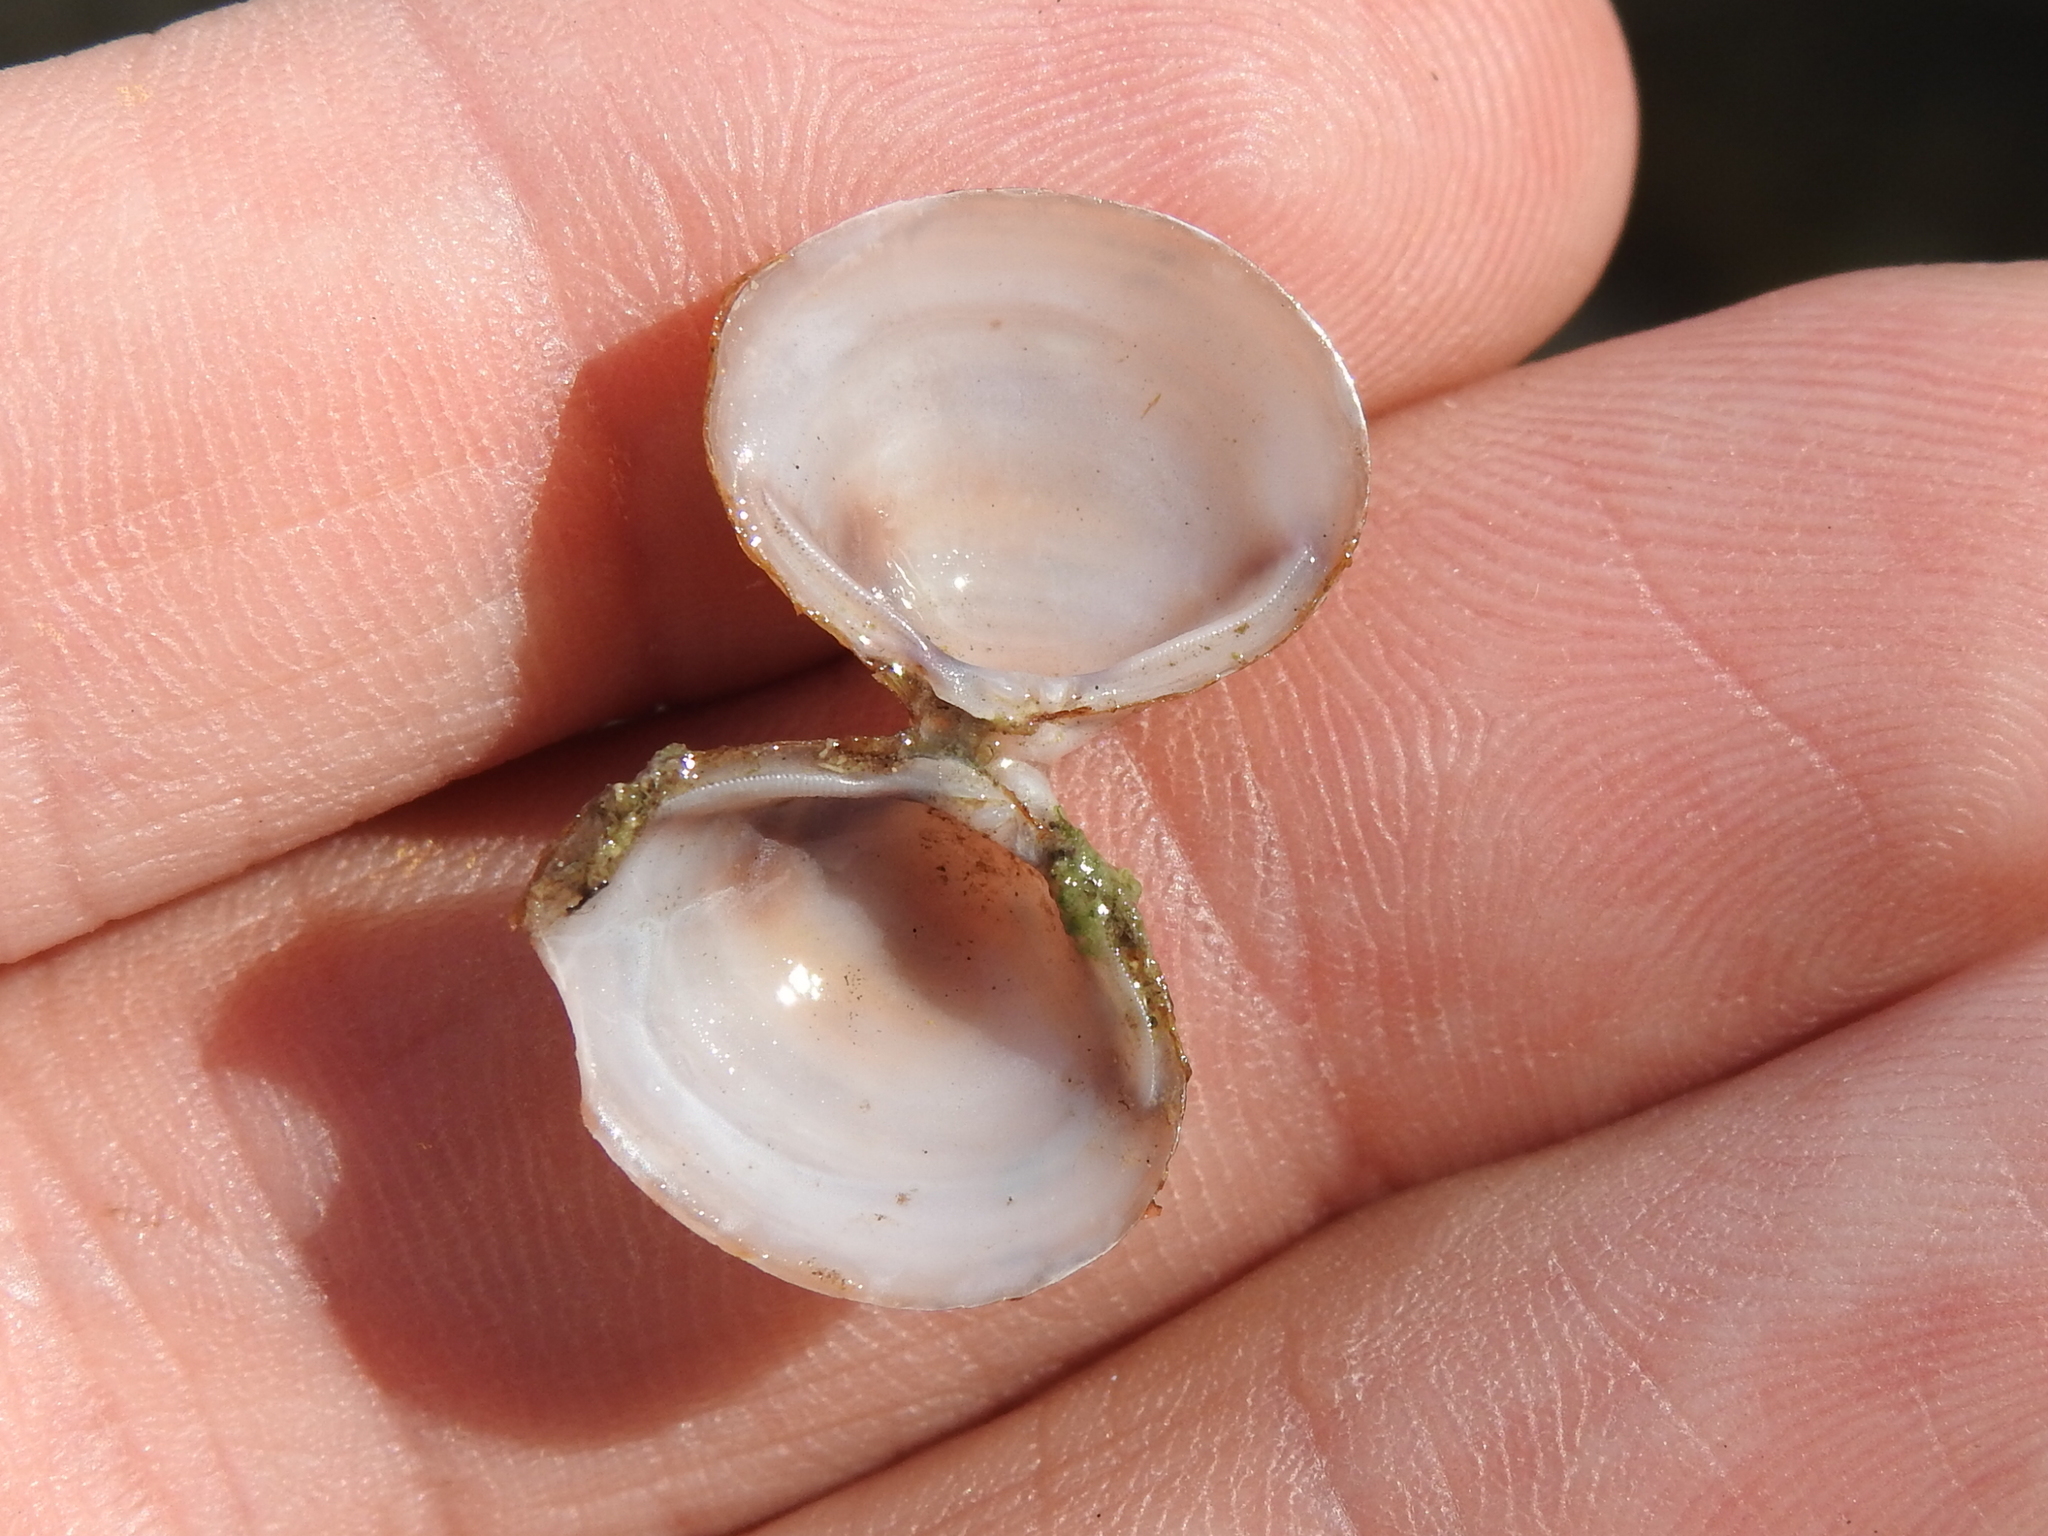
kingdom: Animalia
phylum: Mollusca
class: Bivalvia
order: Venerida
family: Cyrenidae
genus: Corbicula
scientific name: Corbicula fluminea
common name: Asian clam
